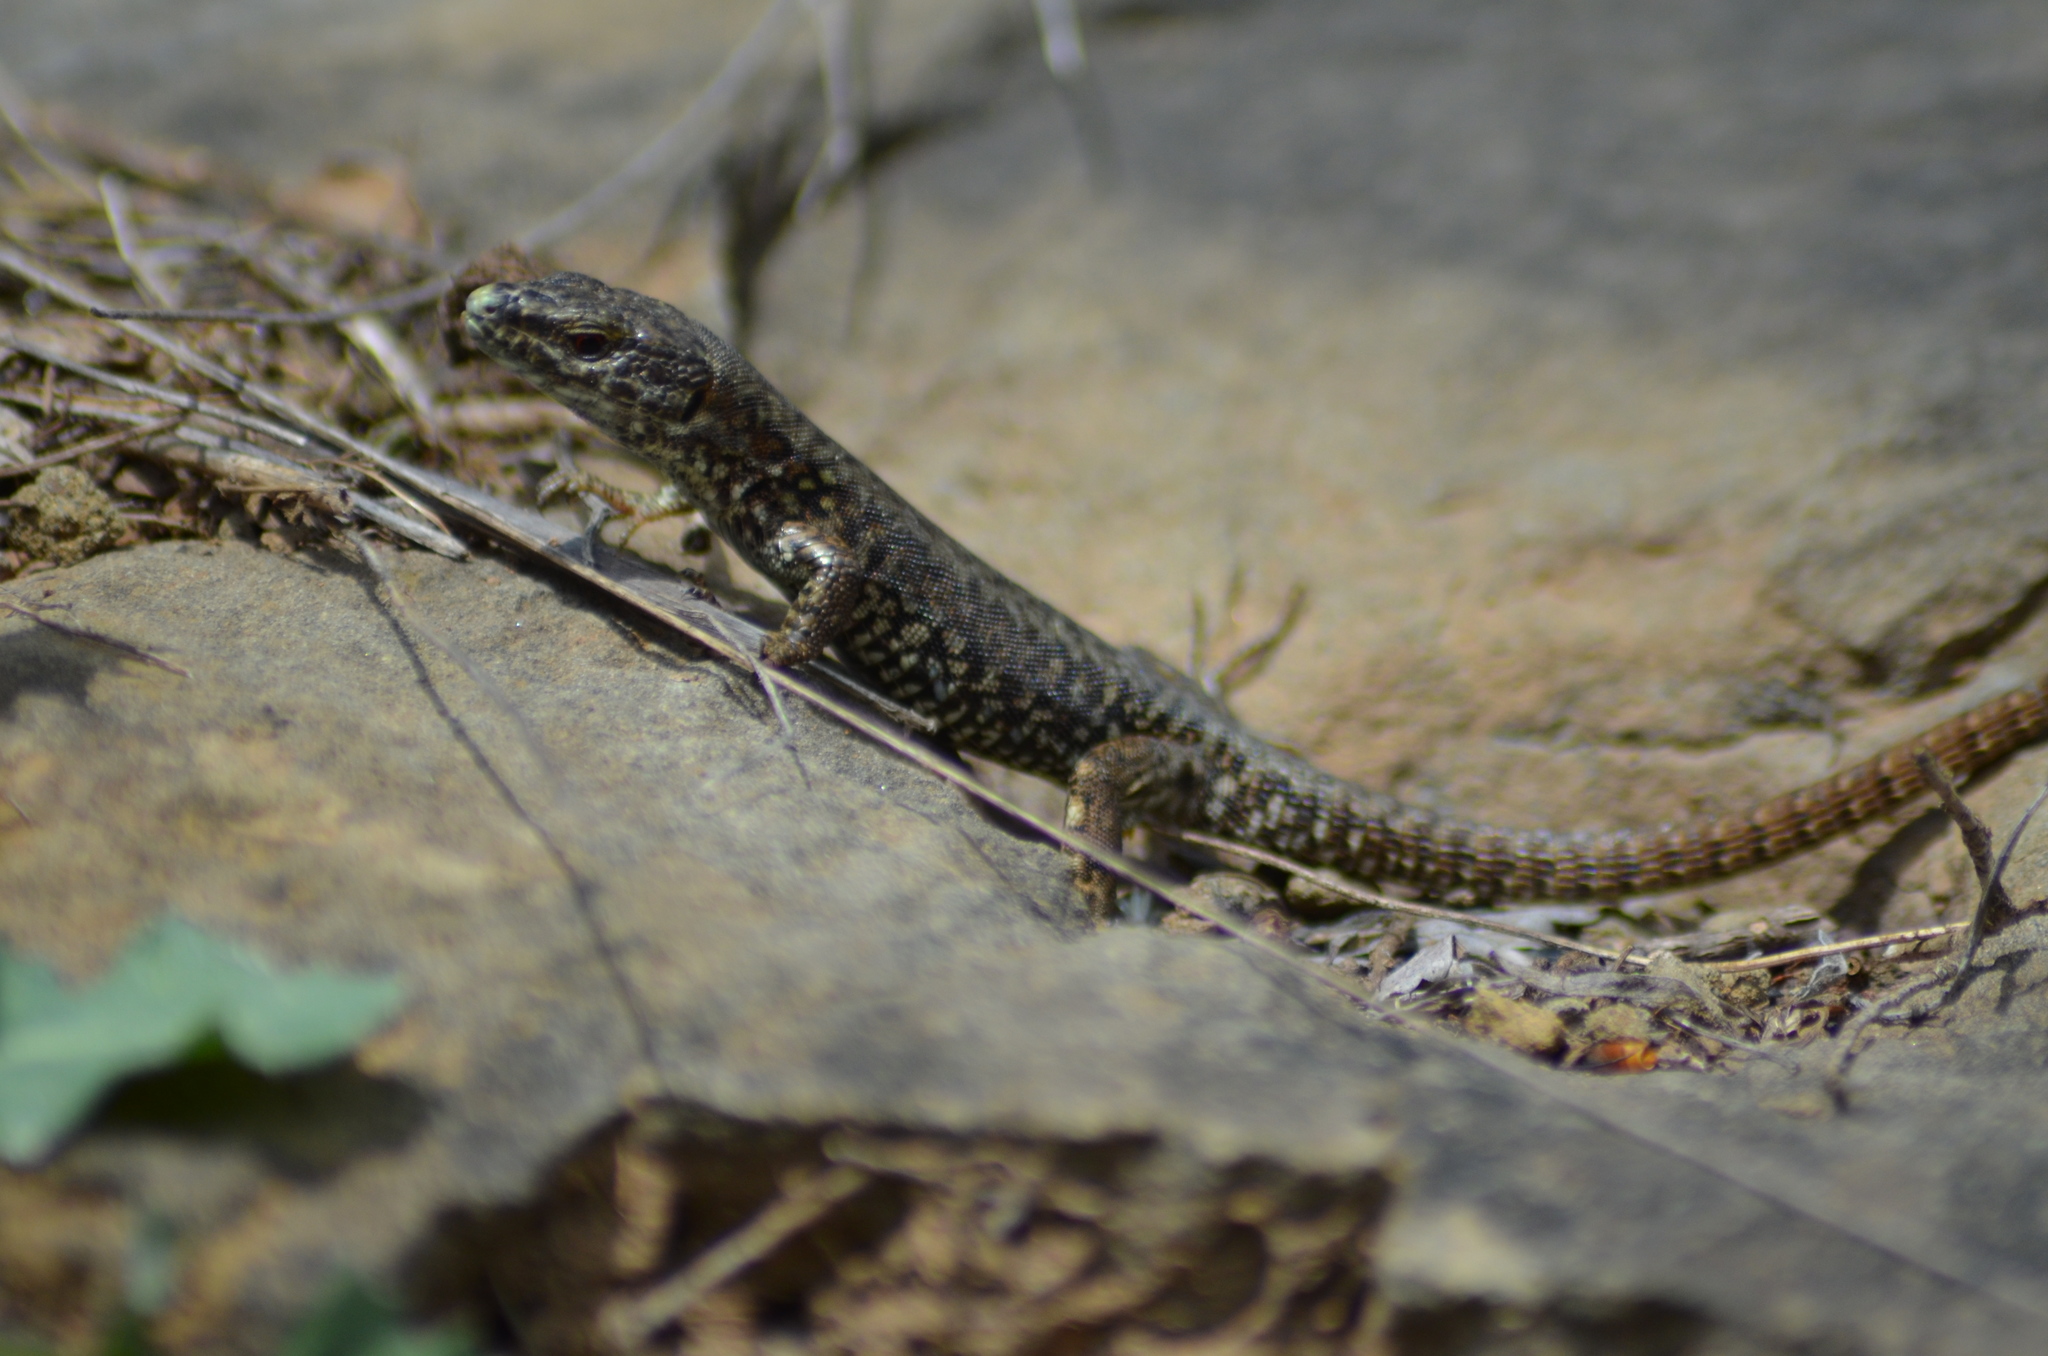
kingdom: Animalia
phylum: Chordata
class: Squamata
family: Lacertidae
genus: Podarcis
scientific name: Podarcis muralis
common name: Common wall lizard
